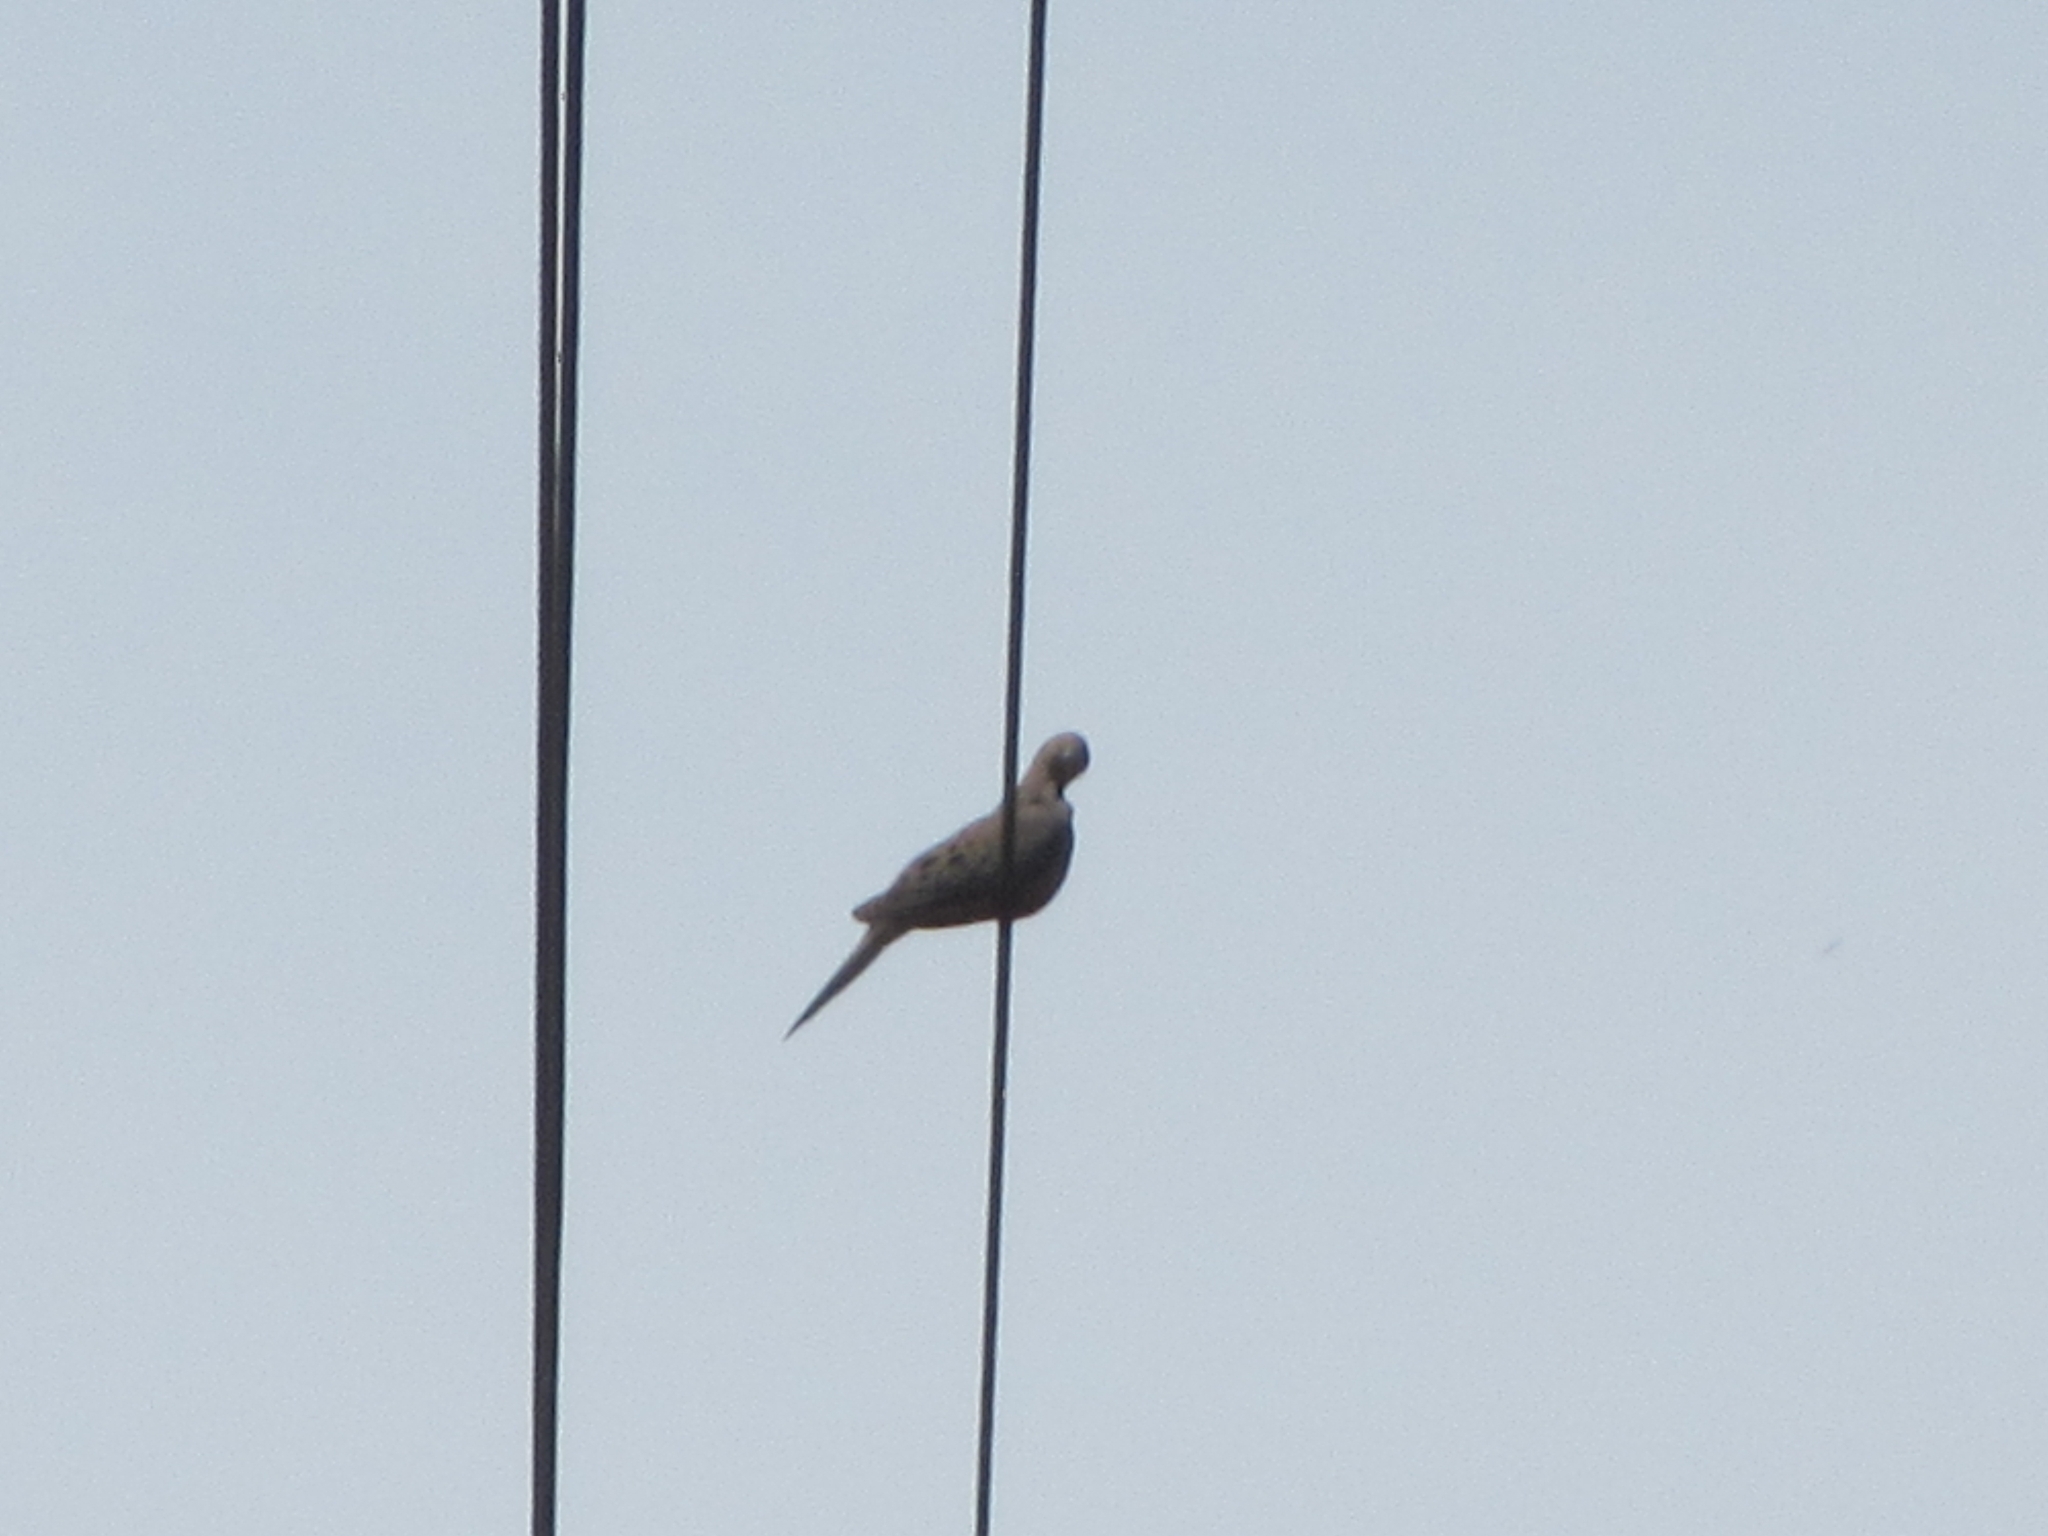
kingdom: Animalia
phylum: Chordata
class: Aves
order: Columbiformes
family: Columbidae
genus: Zenaida
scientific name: Zenaida macroura
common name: Mourning dove
